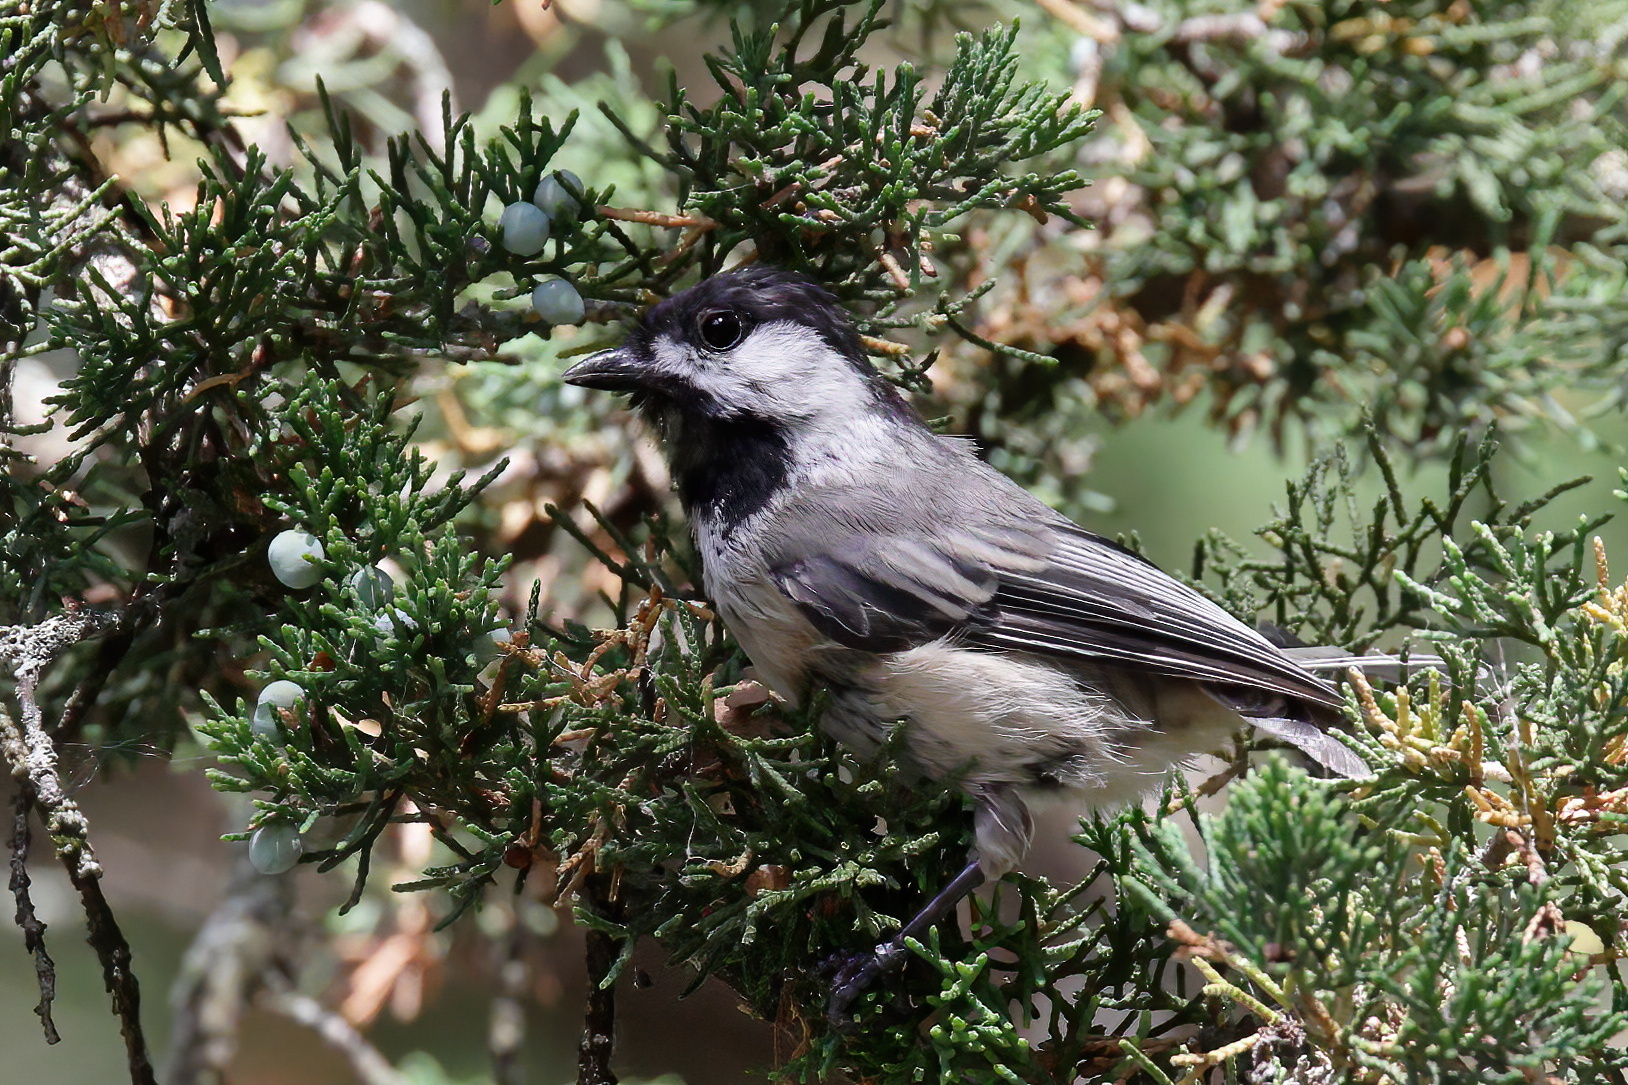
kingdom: Animalia
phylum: Chordata
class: Aves
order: Passeriformes
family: Paridae
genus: Poecile
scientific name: Poecile atricapillus
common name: Black-capped chickadee
